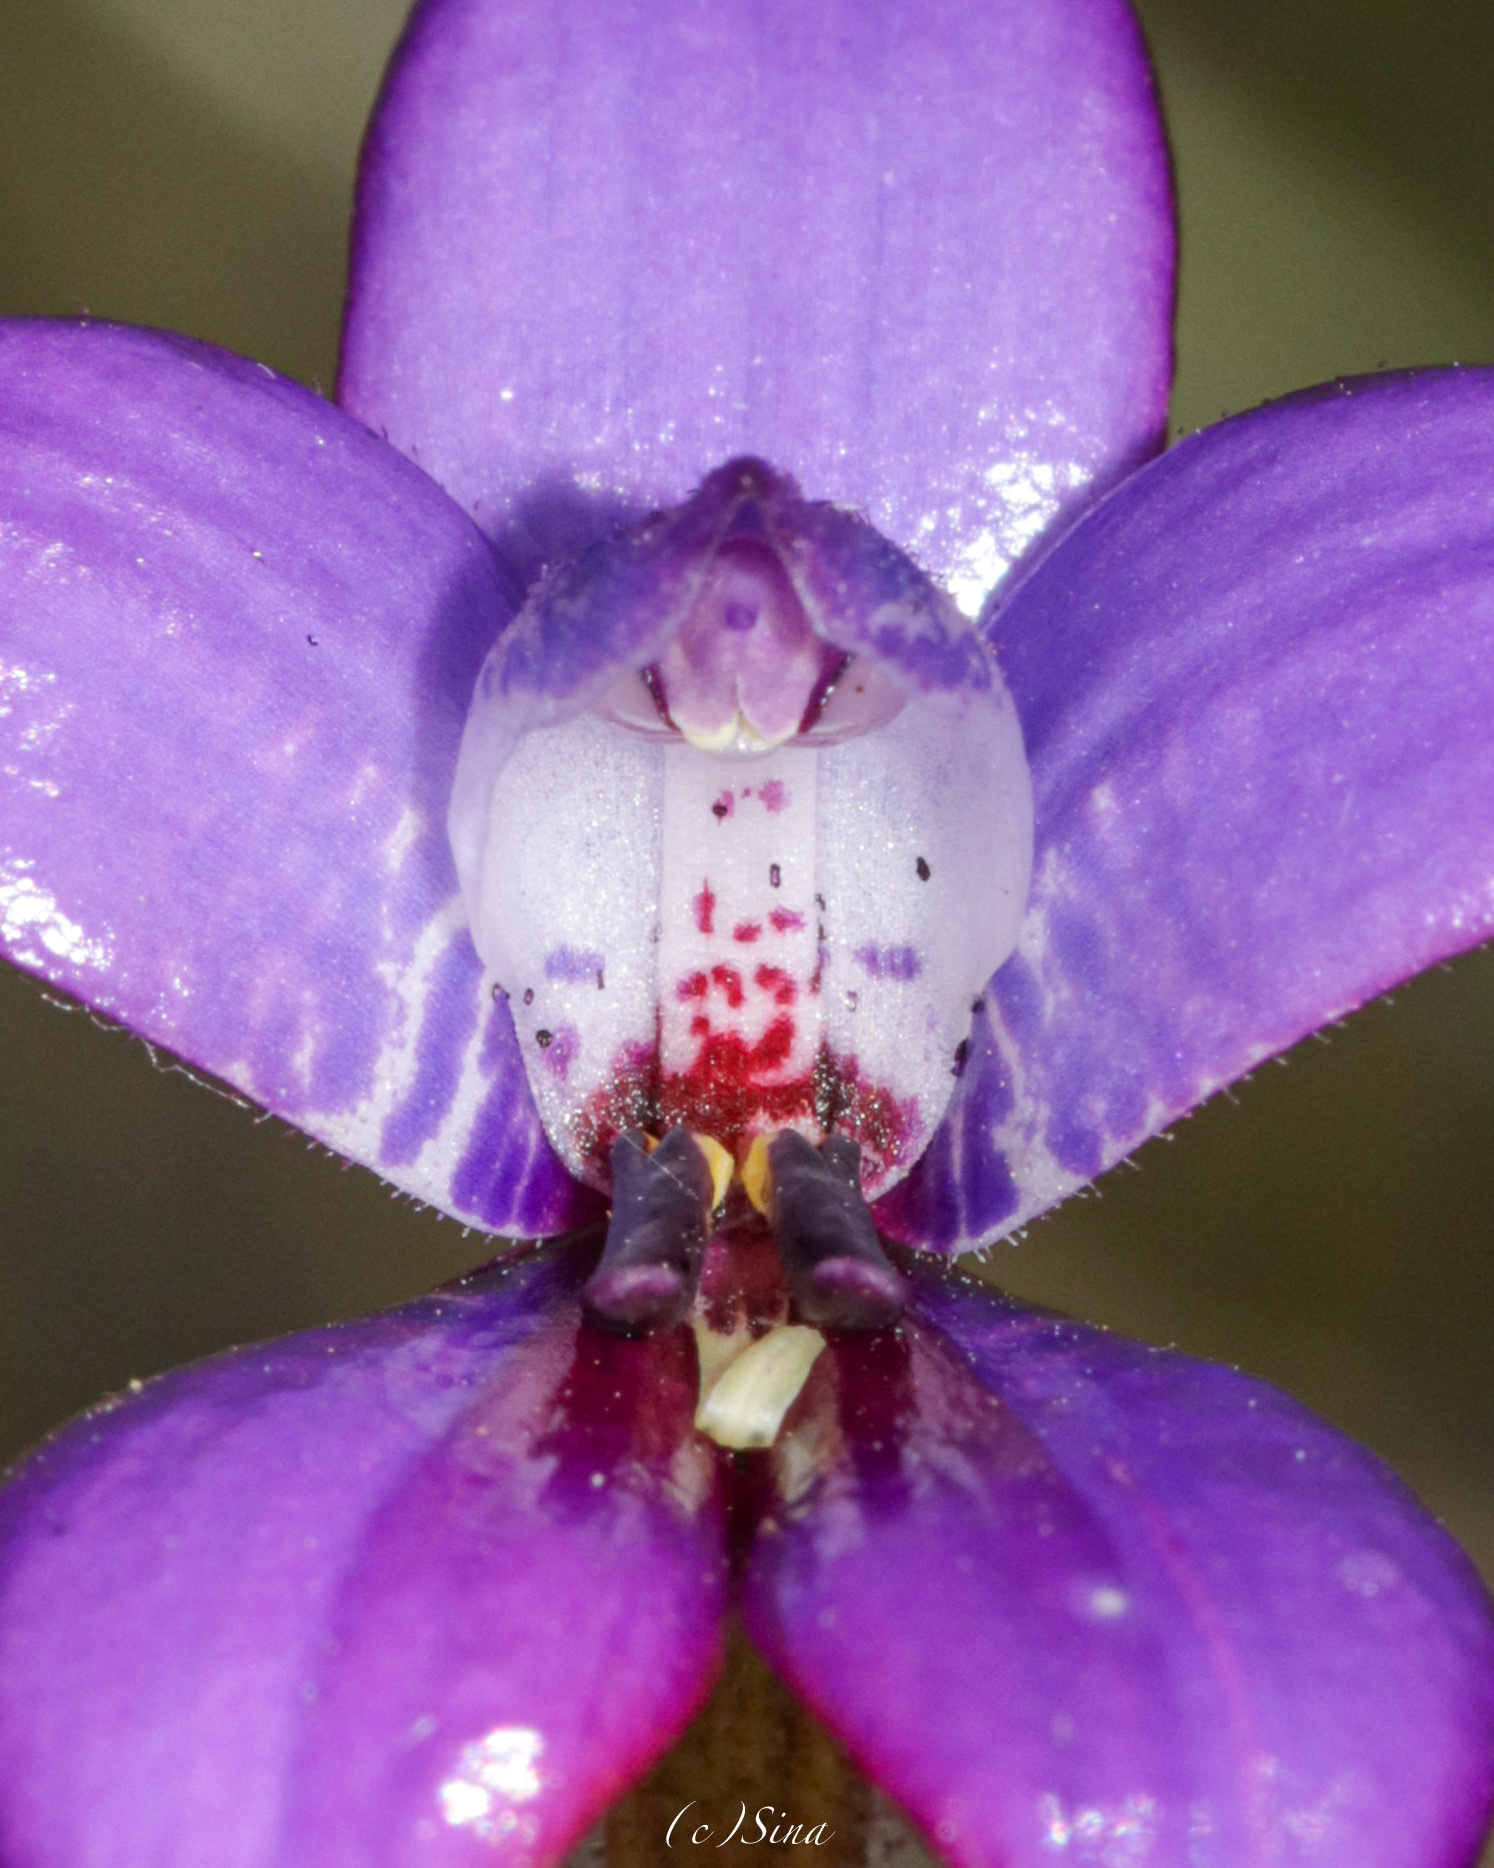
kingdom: Plantae
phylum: Tracheophyta
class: Liliopsida
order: Asparagales
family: Orchidaceae
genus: Caladenia
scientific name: Caladenia brunonis
